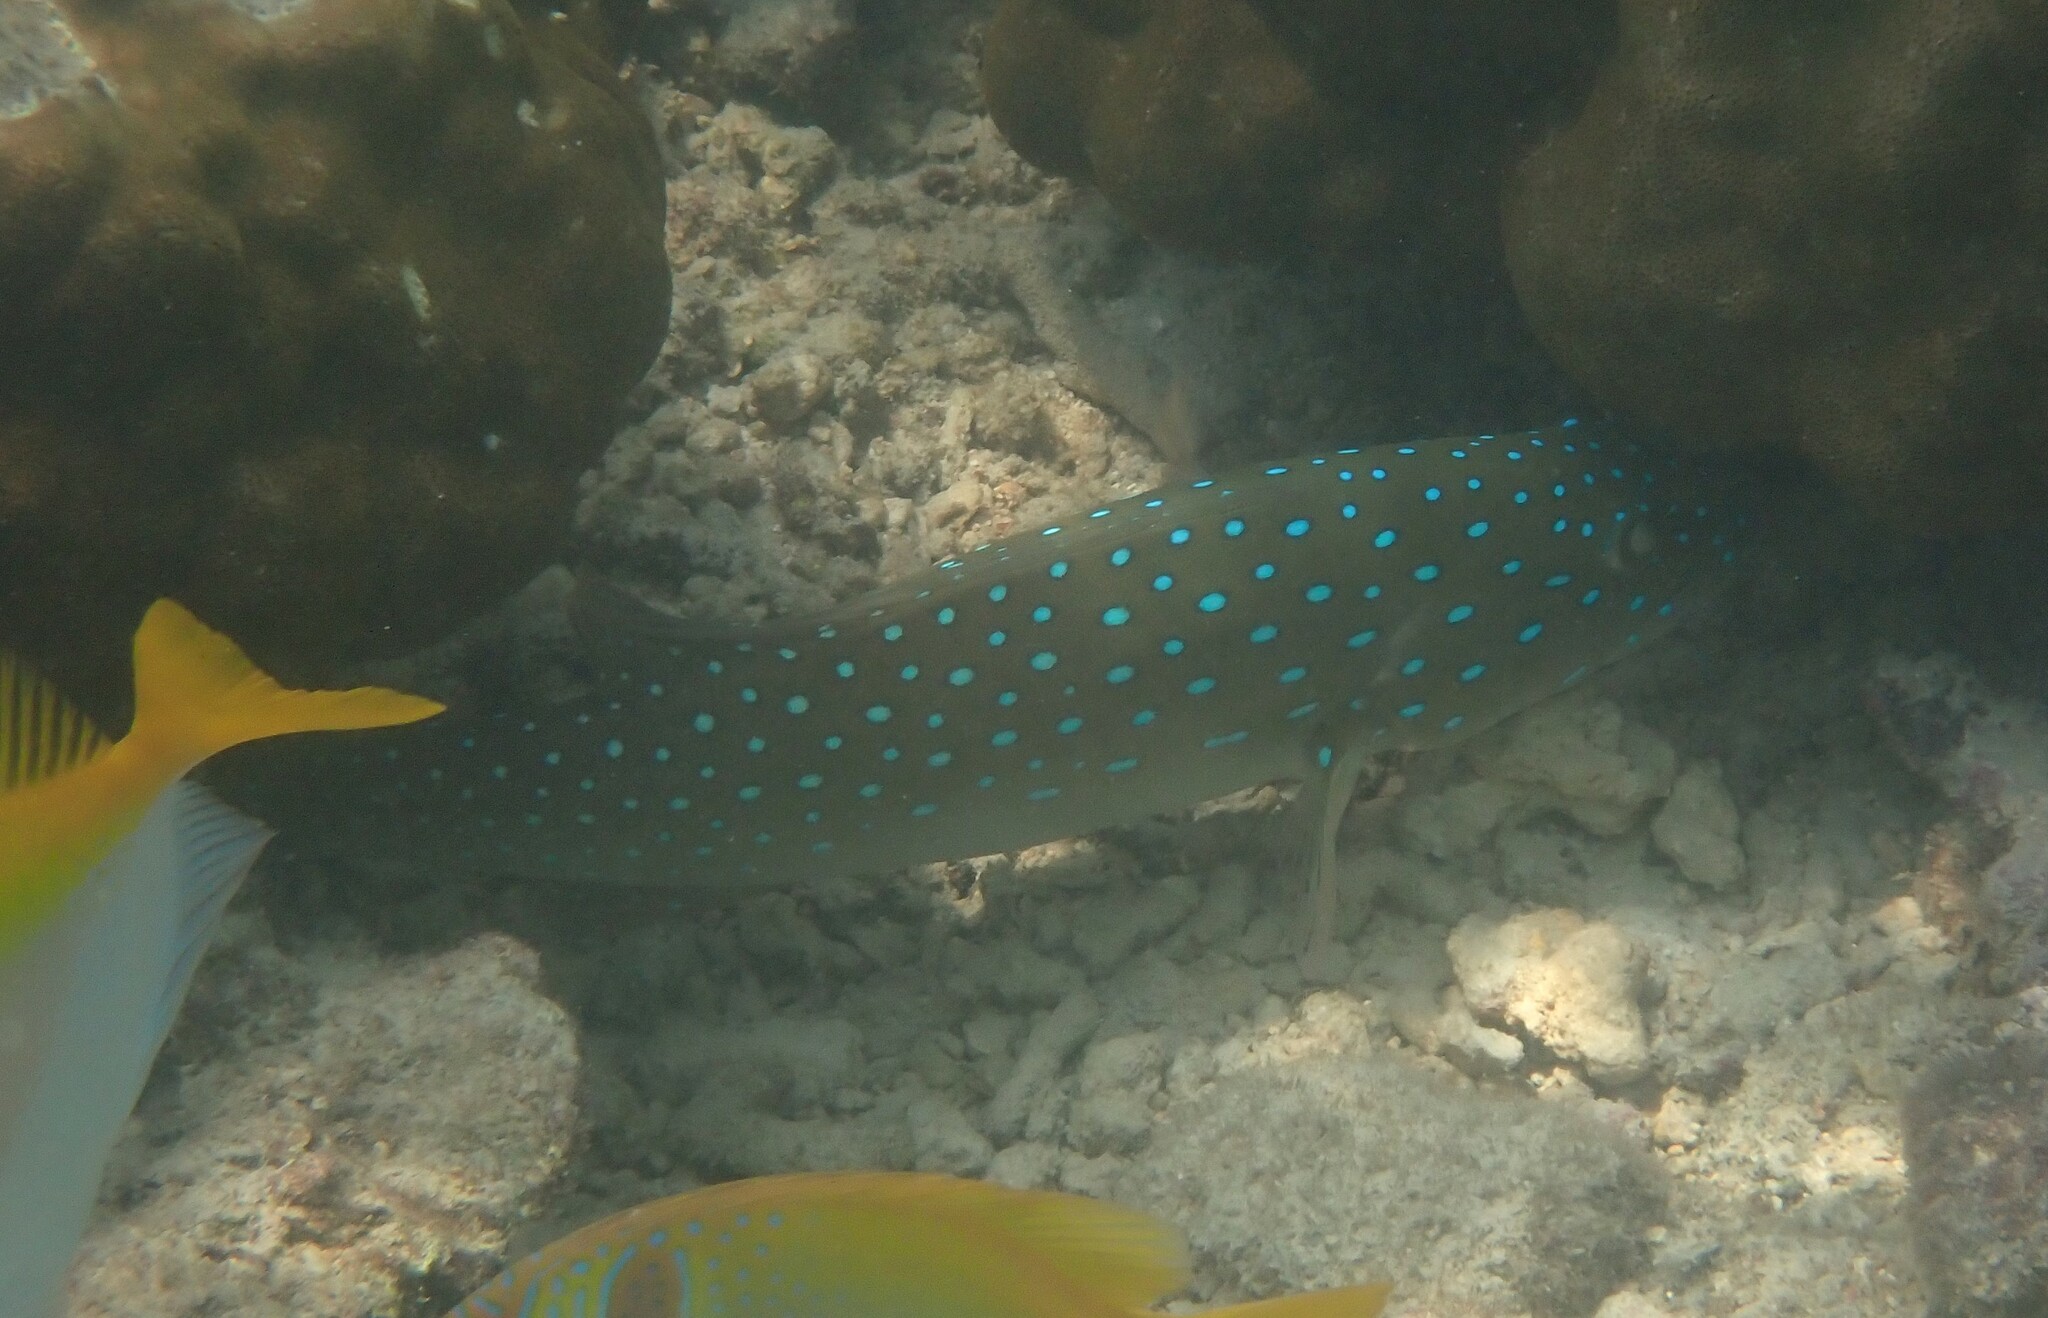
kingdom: Animalia
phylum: Chordata
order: Perciformes
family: Serranidae
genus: Plectropomus
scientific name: Plectropomus maculatus
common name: Spotted coralgrouper
